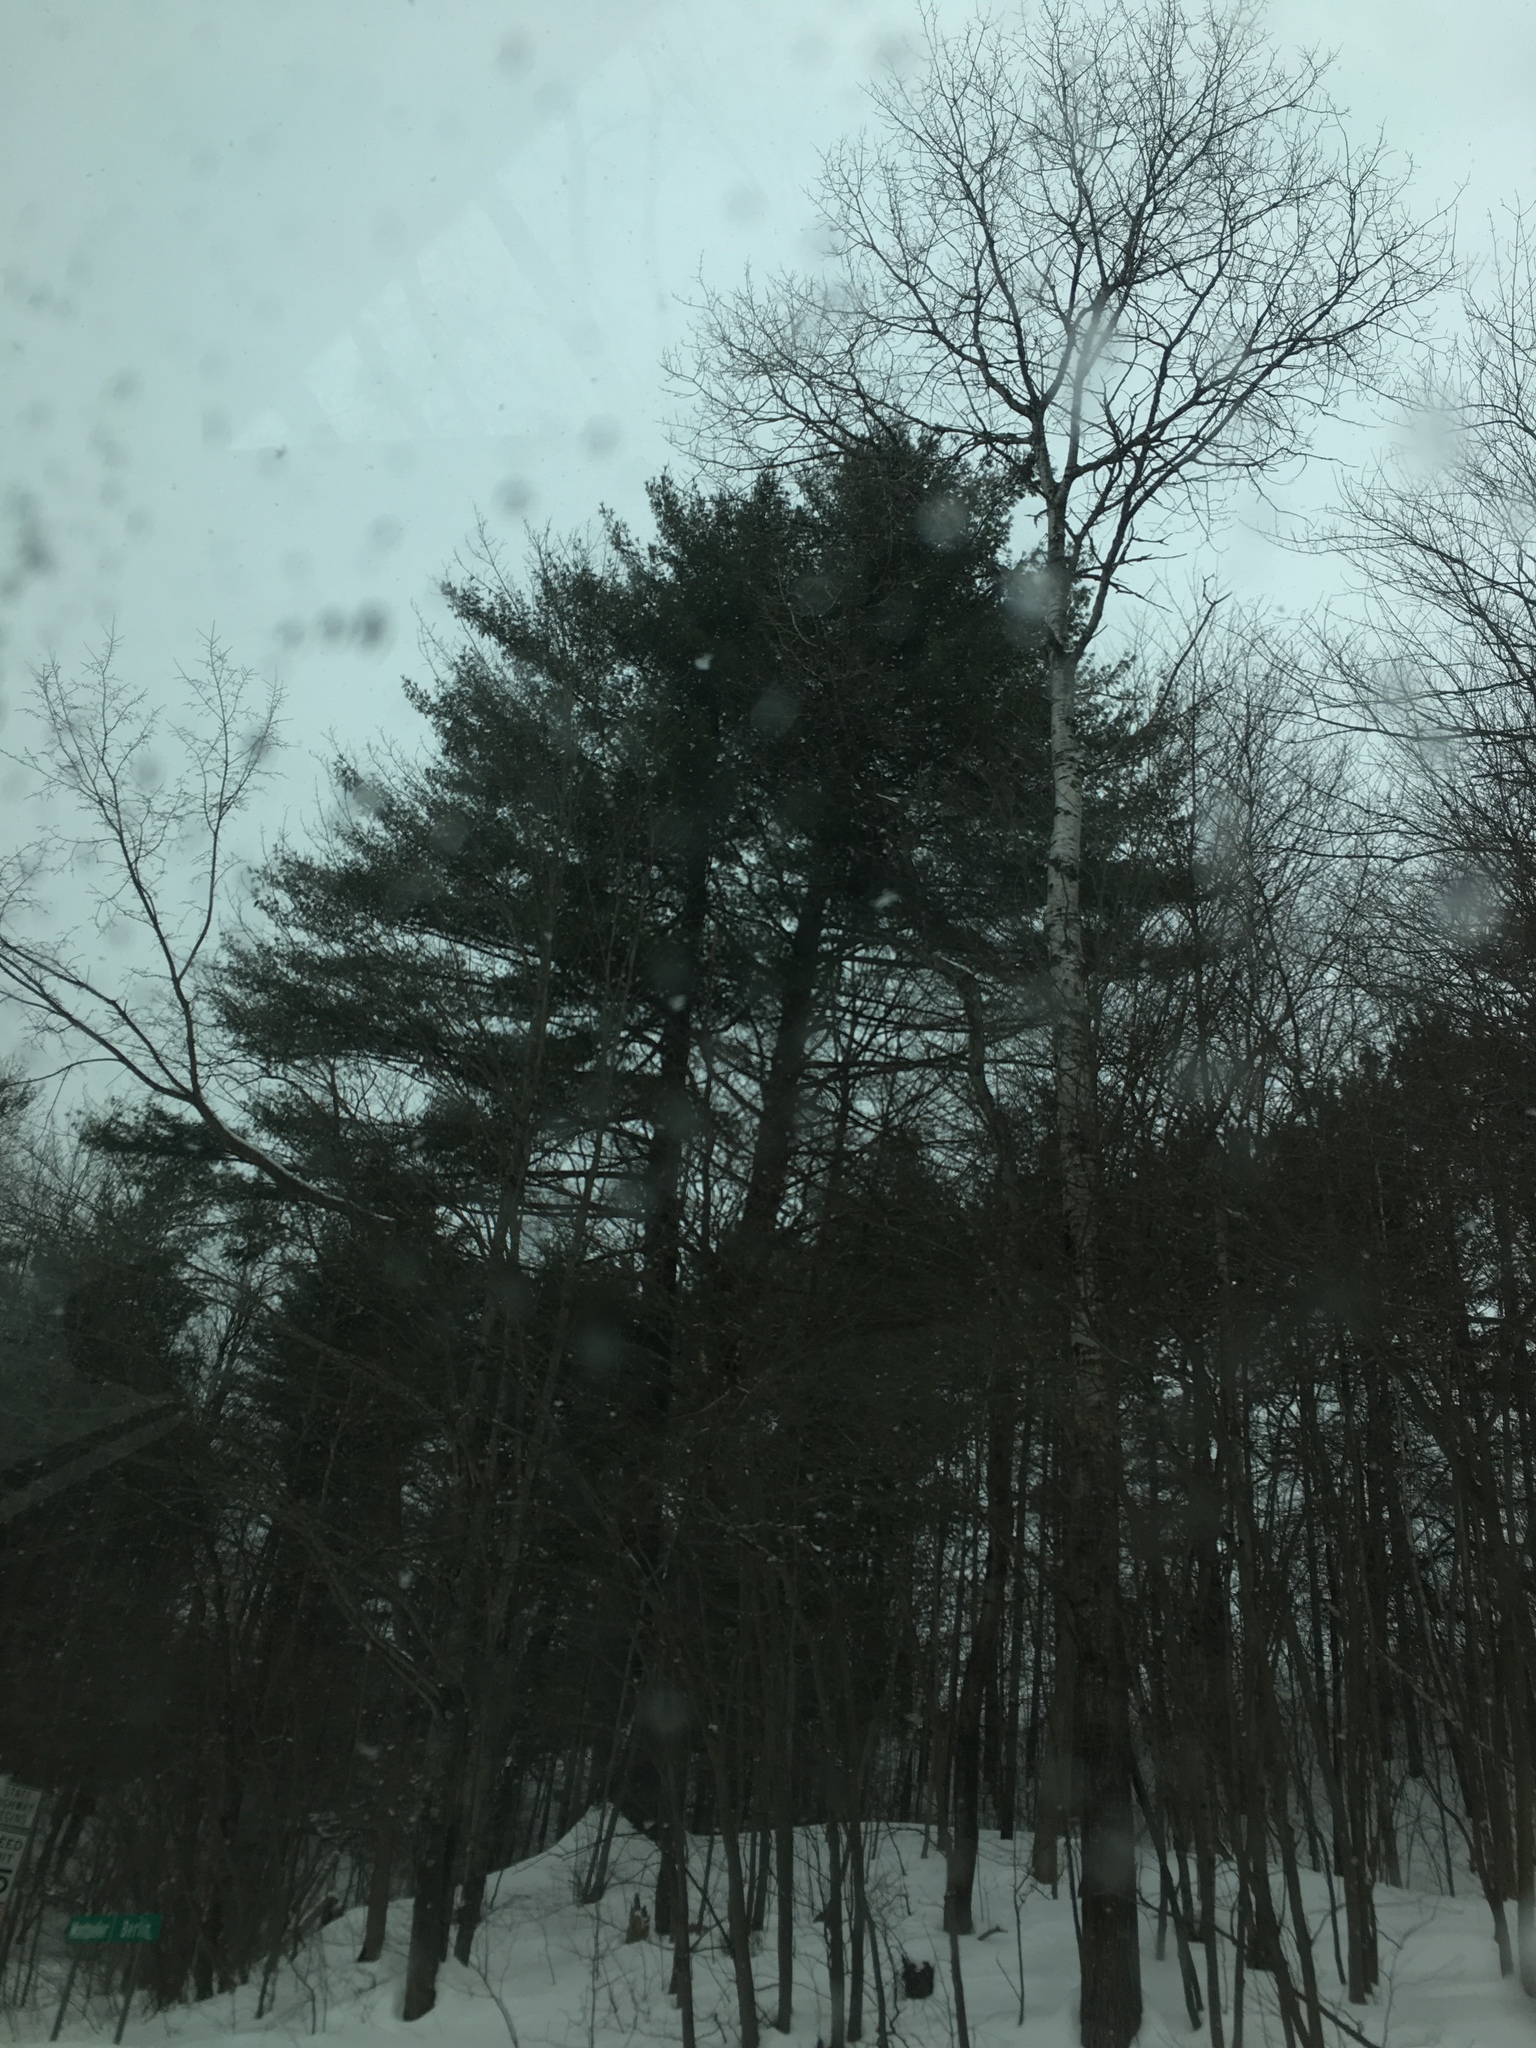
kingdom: Plantae
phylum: Tracheophyta
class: Pinopsida
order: Pinales
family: Pinaceae
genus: Pinus
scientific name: Pinus strobus
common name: Weymouth pine
